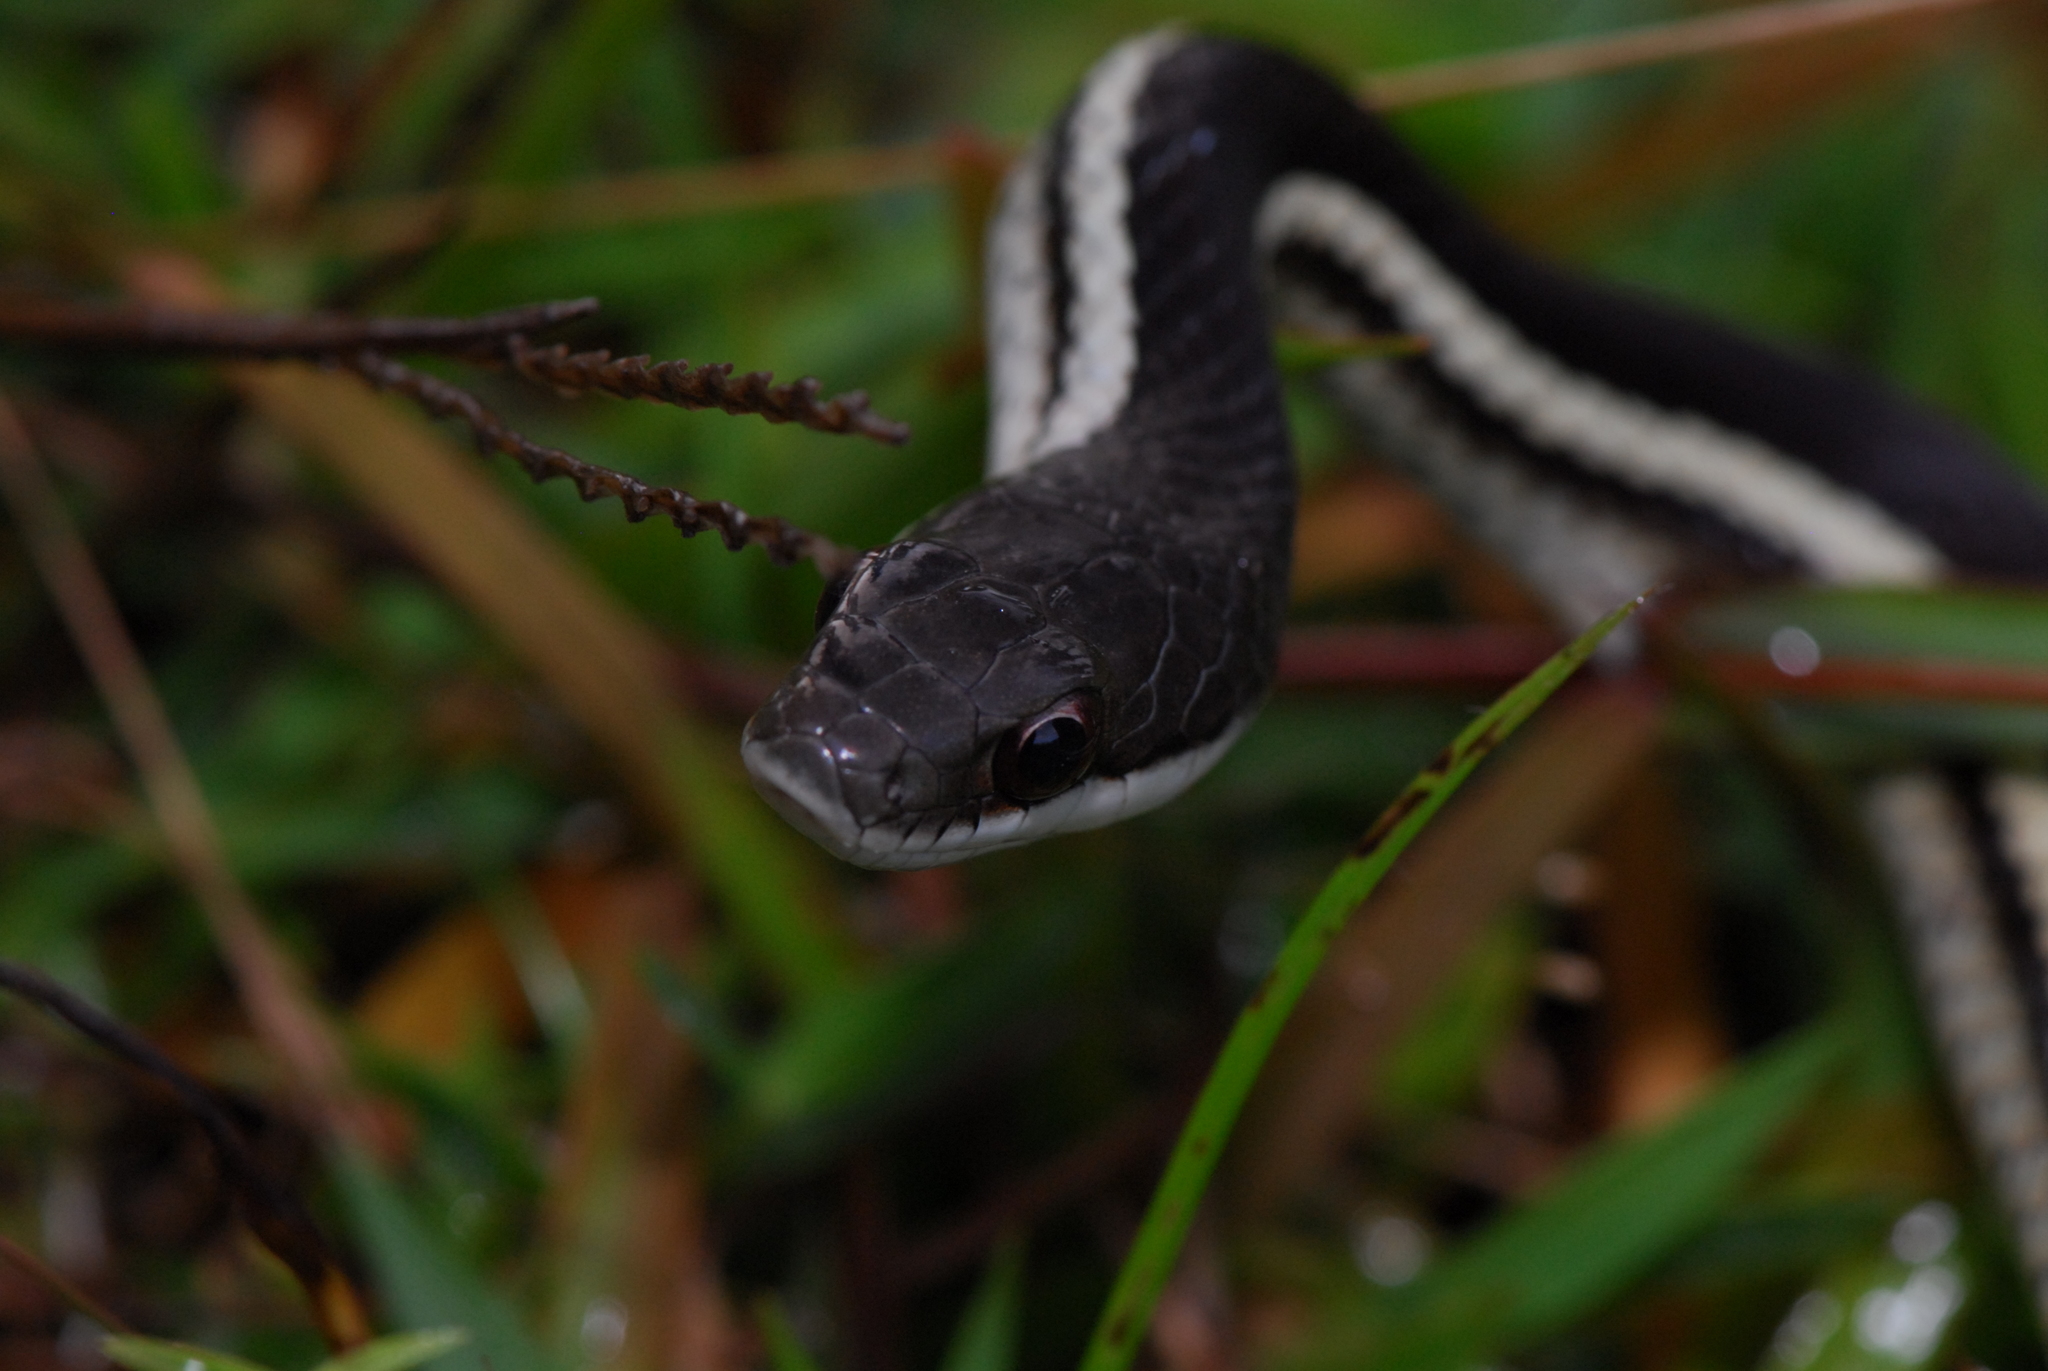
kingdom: Animalia
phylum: Chordata
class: Squamata
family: Pseudoxyrhophiidae
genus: Thamnosophis
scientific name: Thamnosophis lateralis
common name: Lateral water snake
